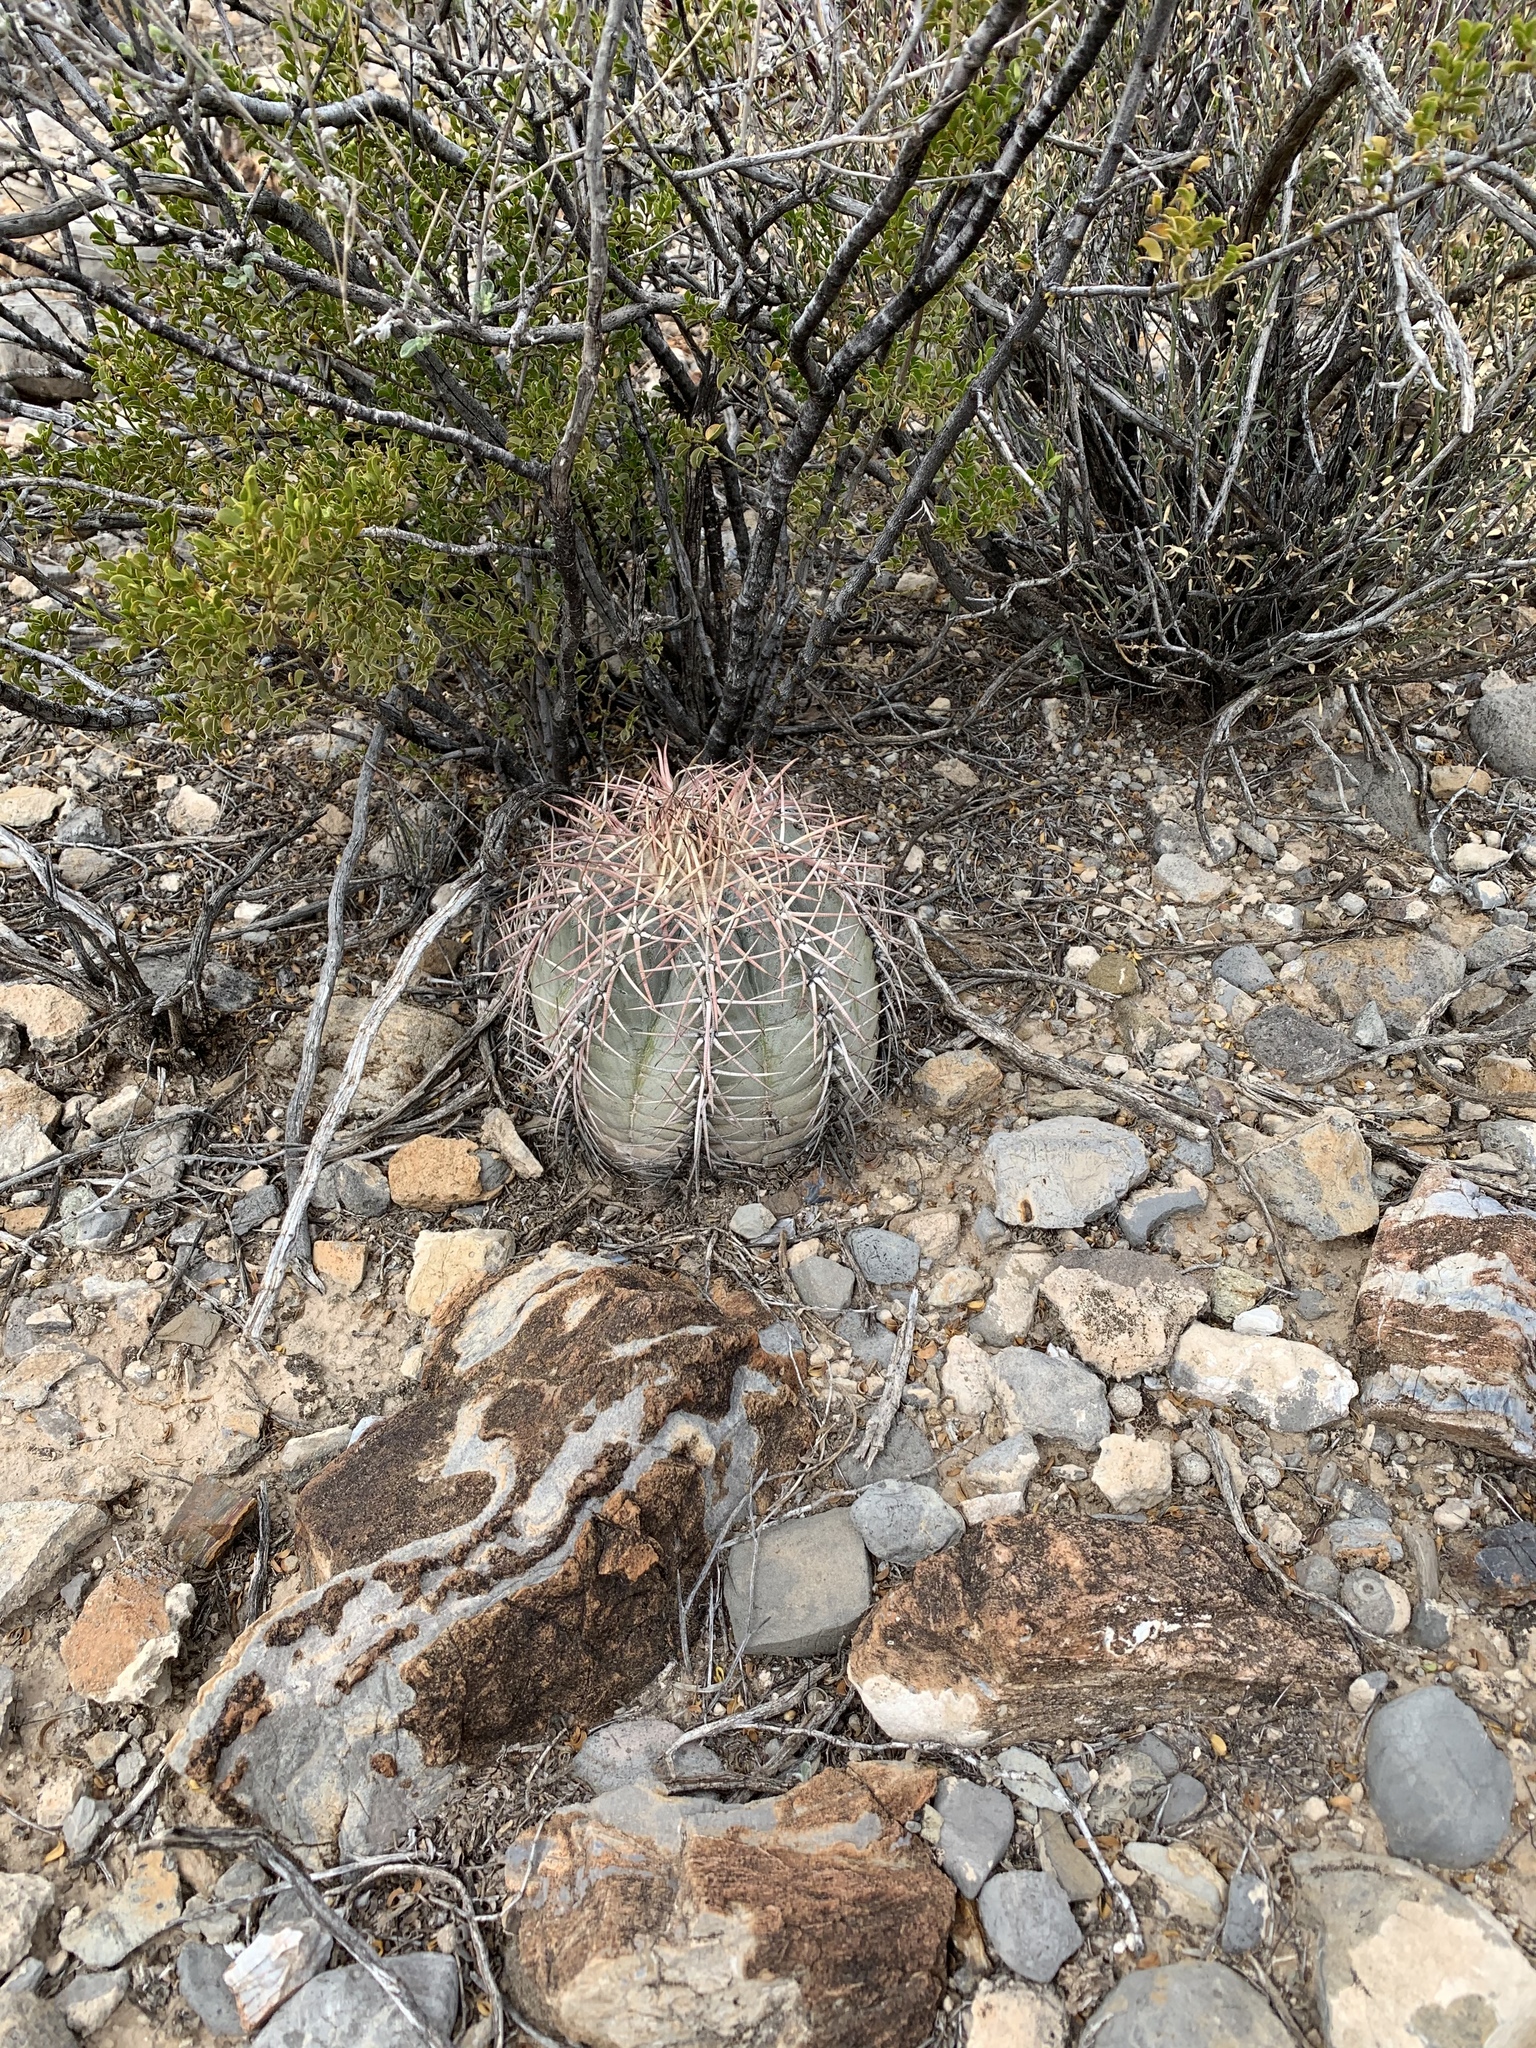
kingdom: Plantae
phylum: Tracheophyta
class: Magnoliopsida
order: Caryophyllales
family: Cactaceae
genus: Echinocactus
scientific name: Echinocactus horizonthalonius
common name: Devilshead
